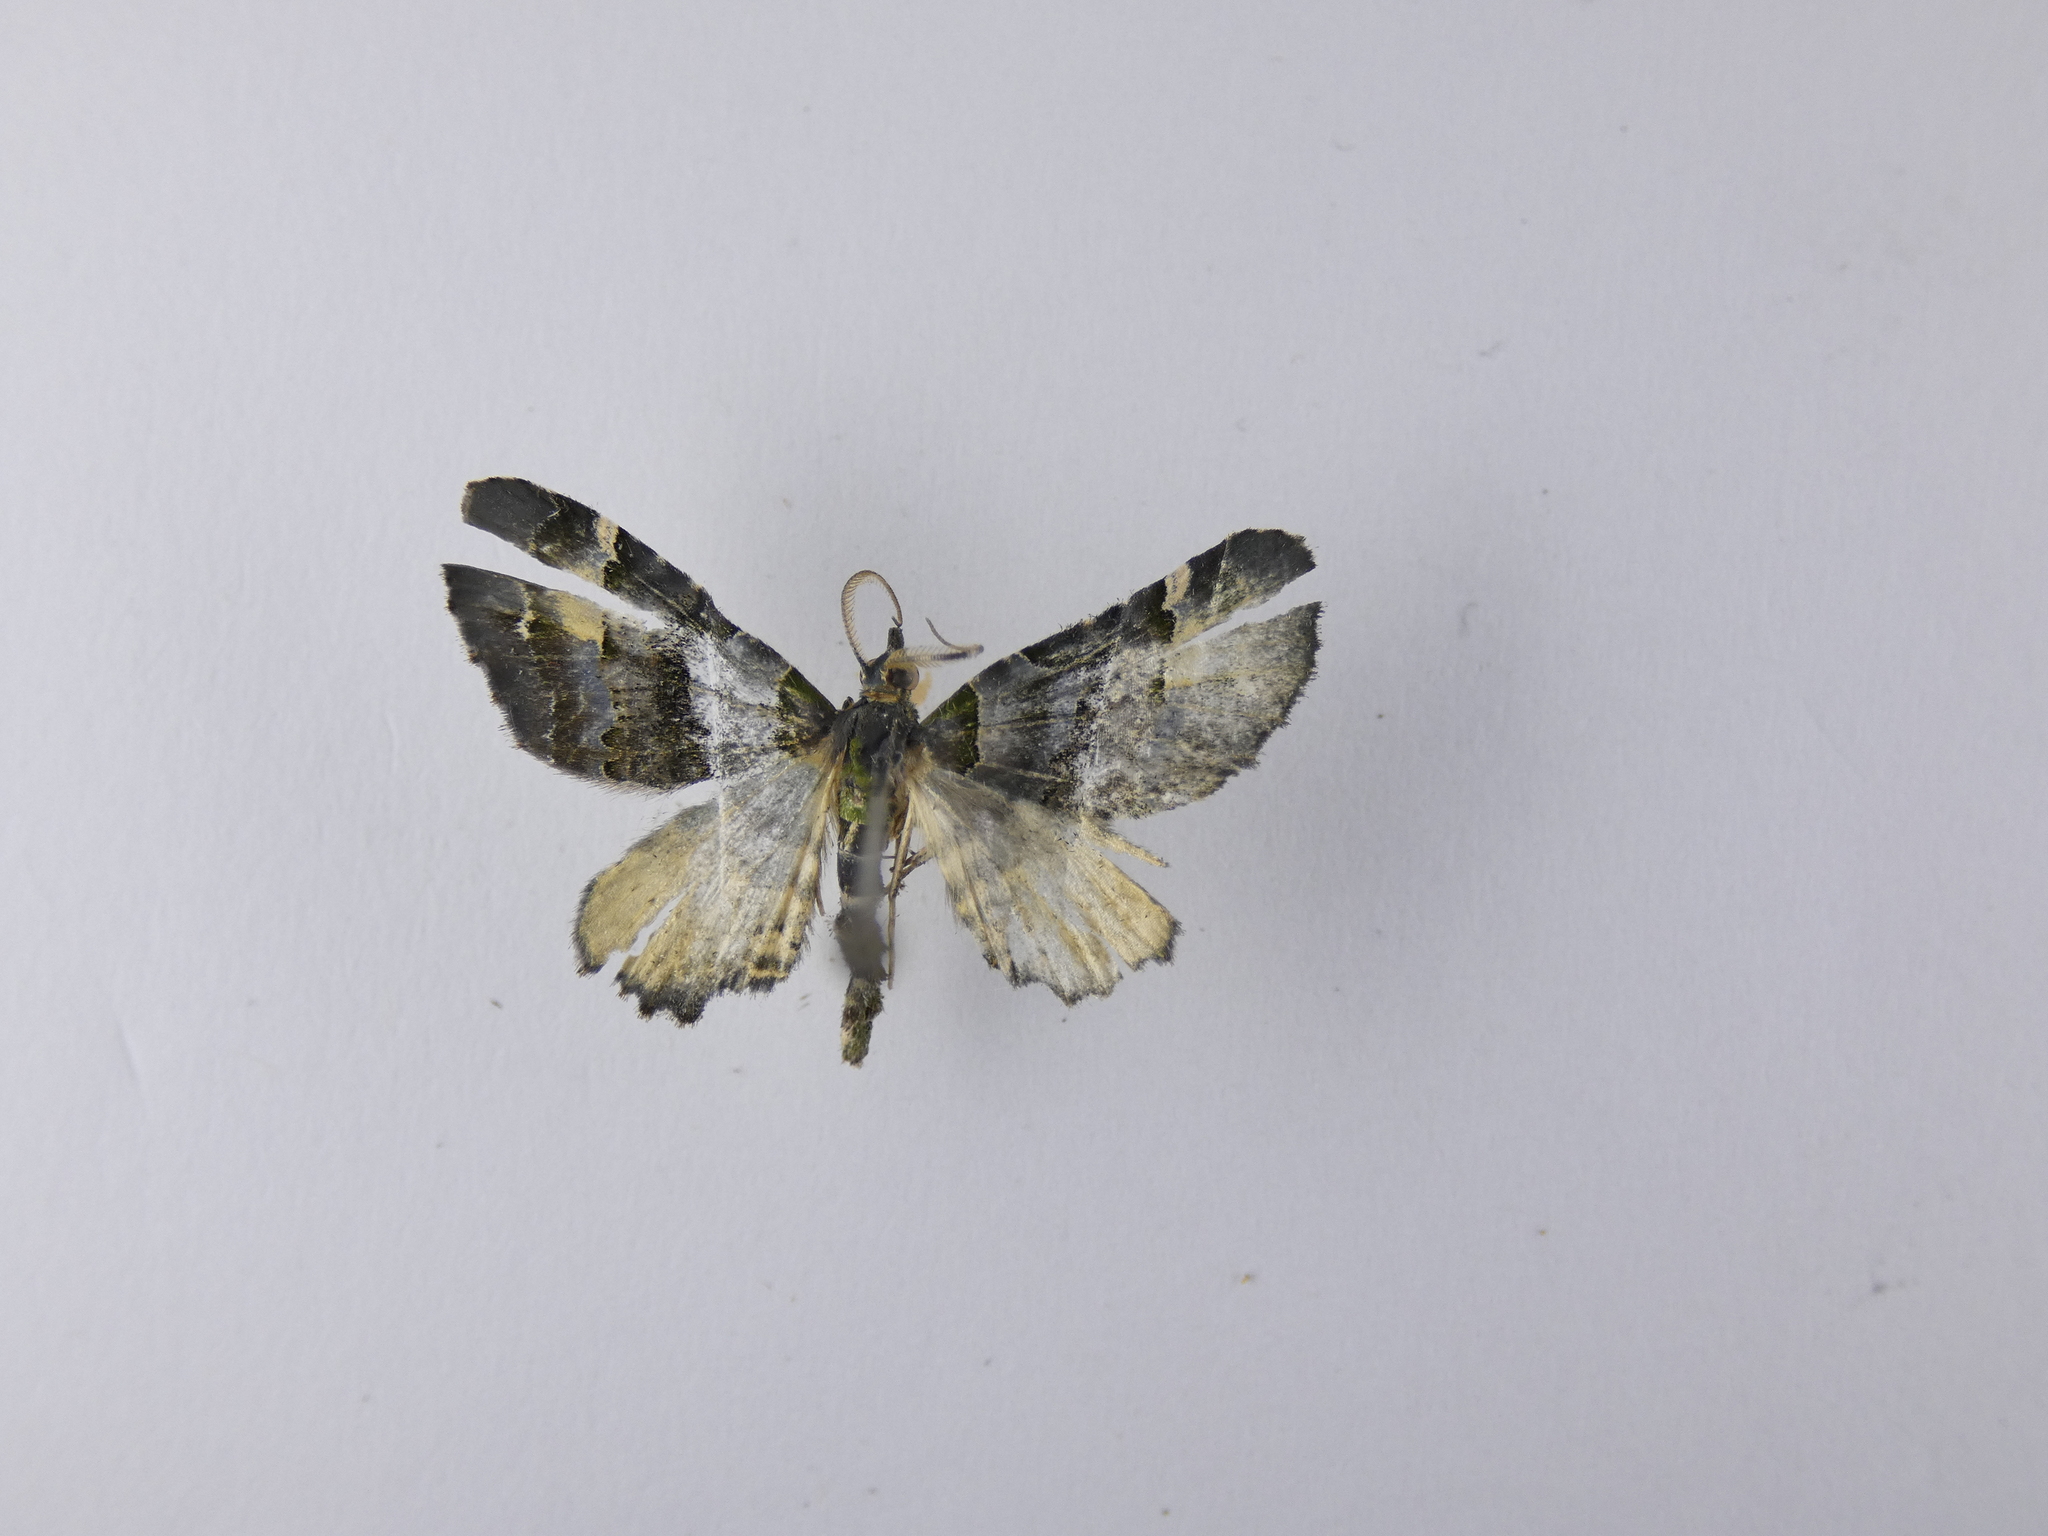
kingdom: Animalia
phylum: Arthropoda
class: Insecta
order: Lepidoptera
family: Geometridae
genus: Elvia
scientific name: Elvia glaucata
